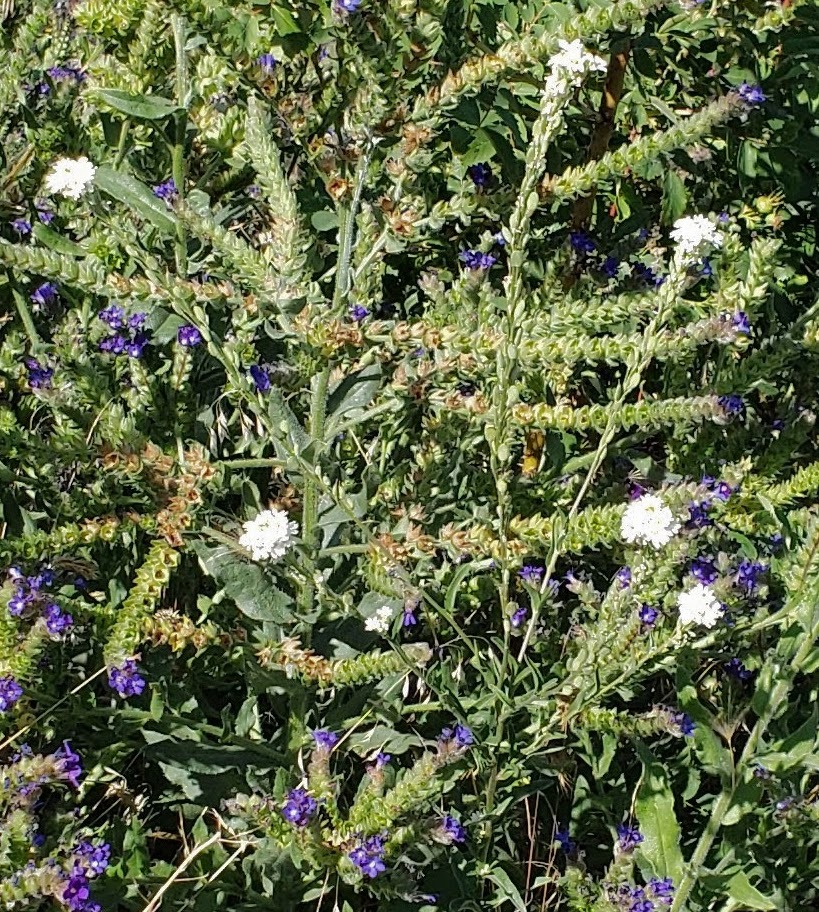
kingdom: Plantae
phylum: Tracheophyta
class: Magnoliopsida
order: Brassicales
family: Brassicaceae
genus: Berteroa
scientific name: Berteroa incana
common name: Hoary alison
